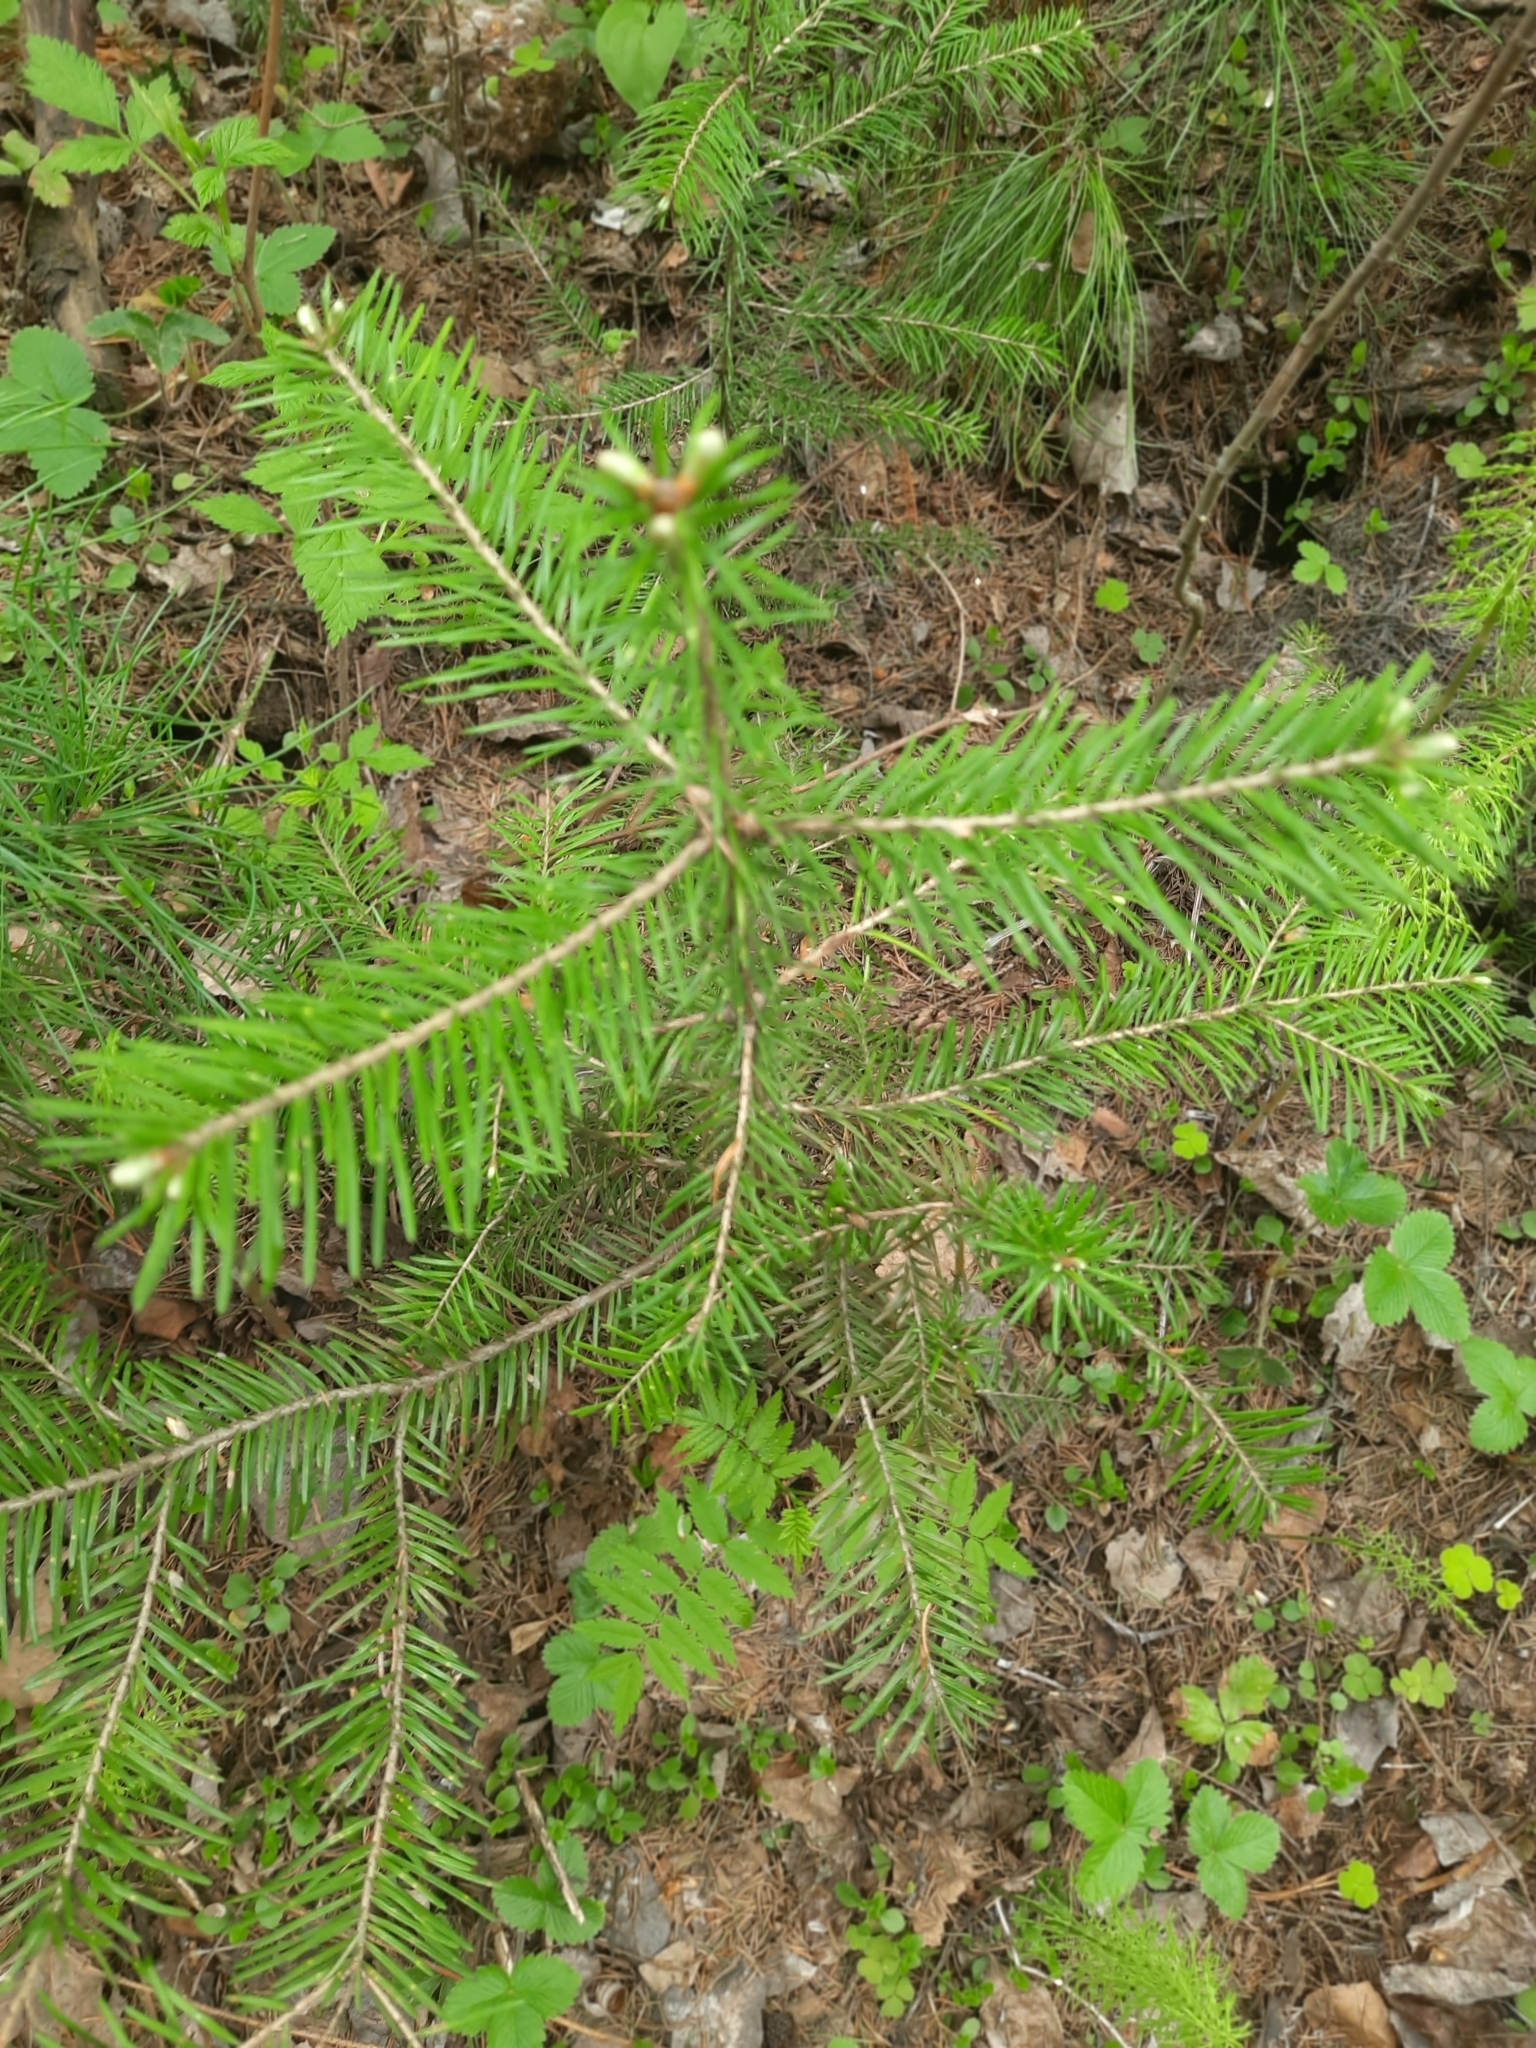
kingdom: Plantae
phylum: Tracheophyta
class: Pinopsida
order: Pinales
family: Pinaceae
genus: Abies
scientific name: Abies sibirica
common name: Siberian fir
